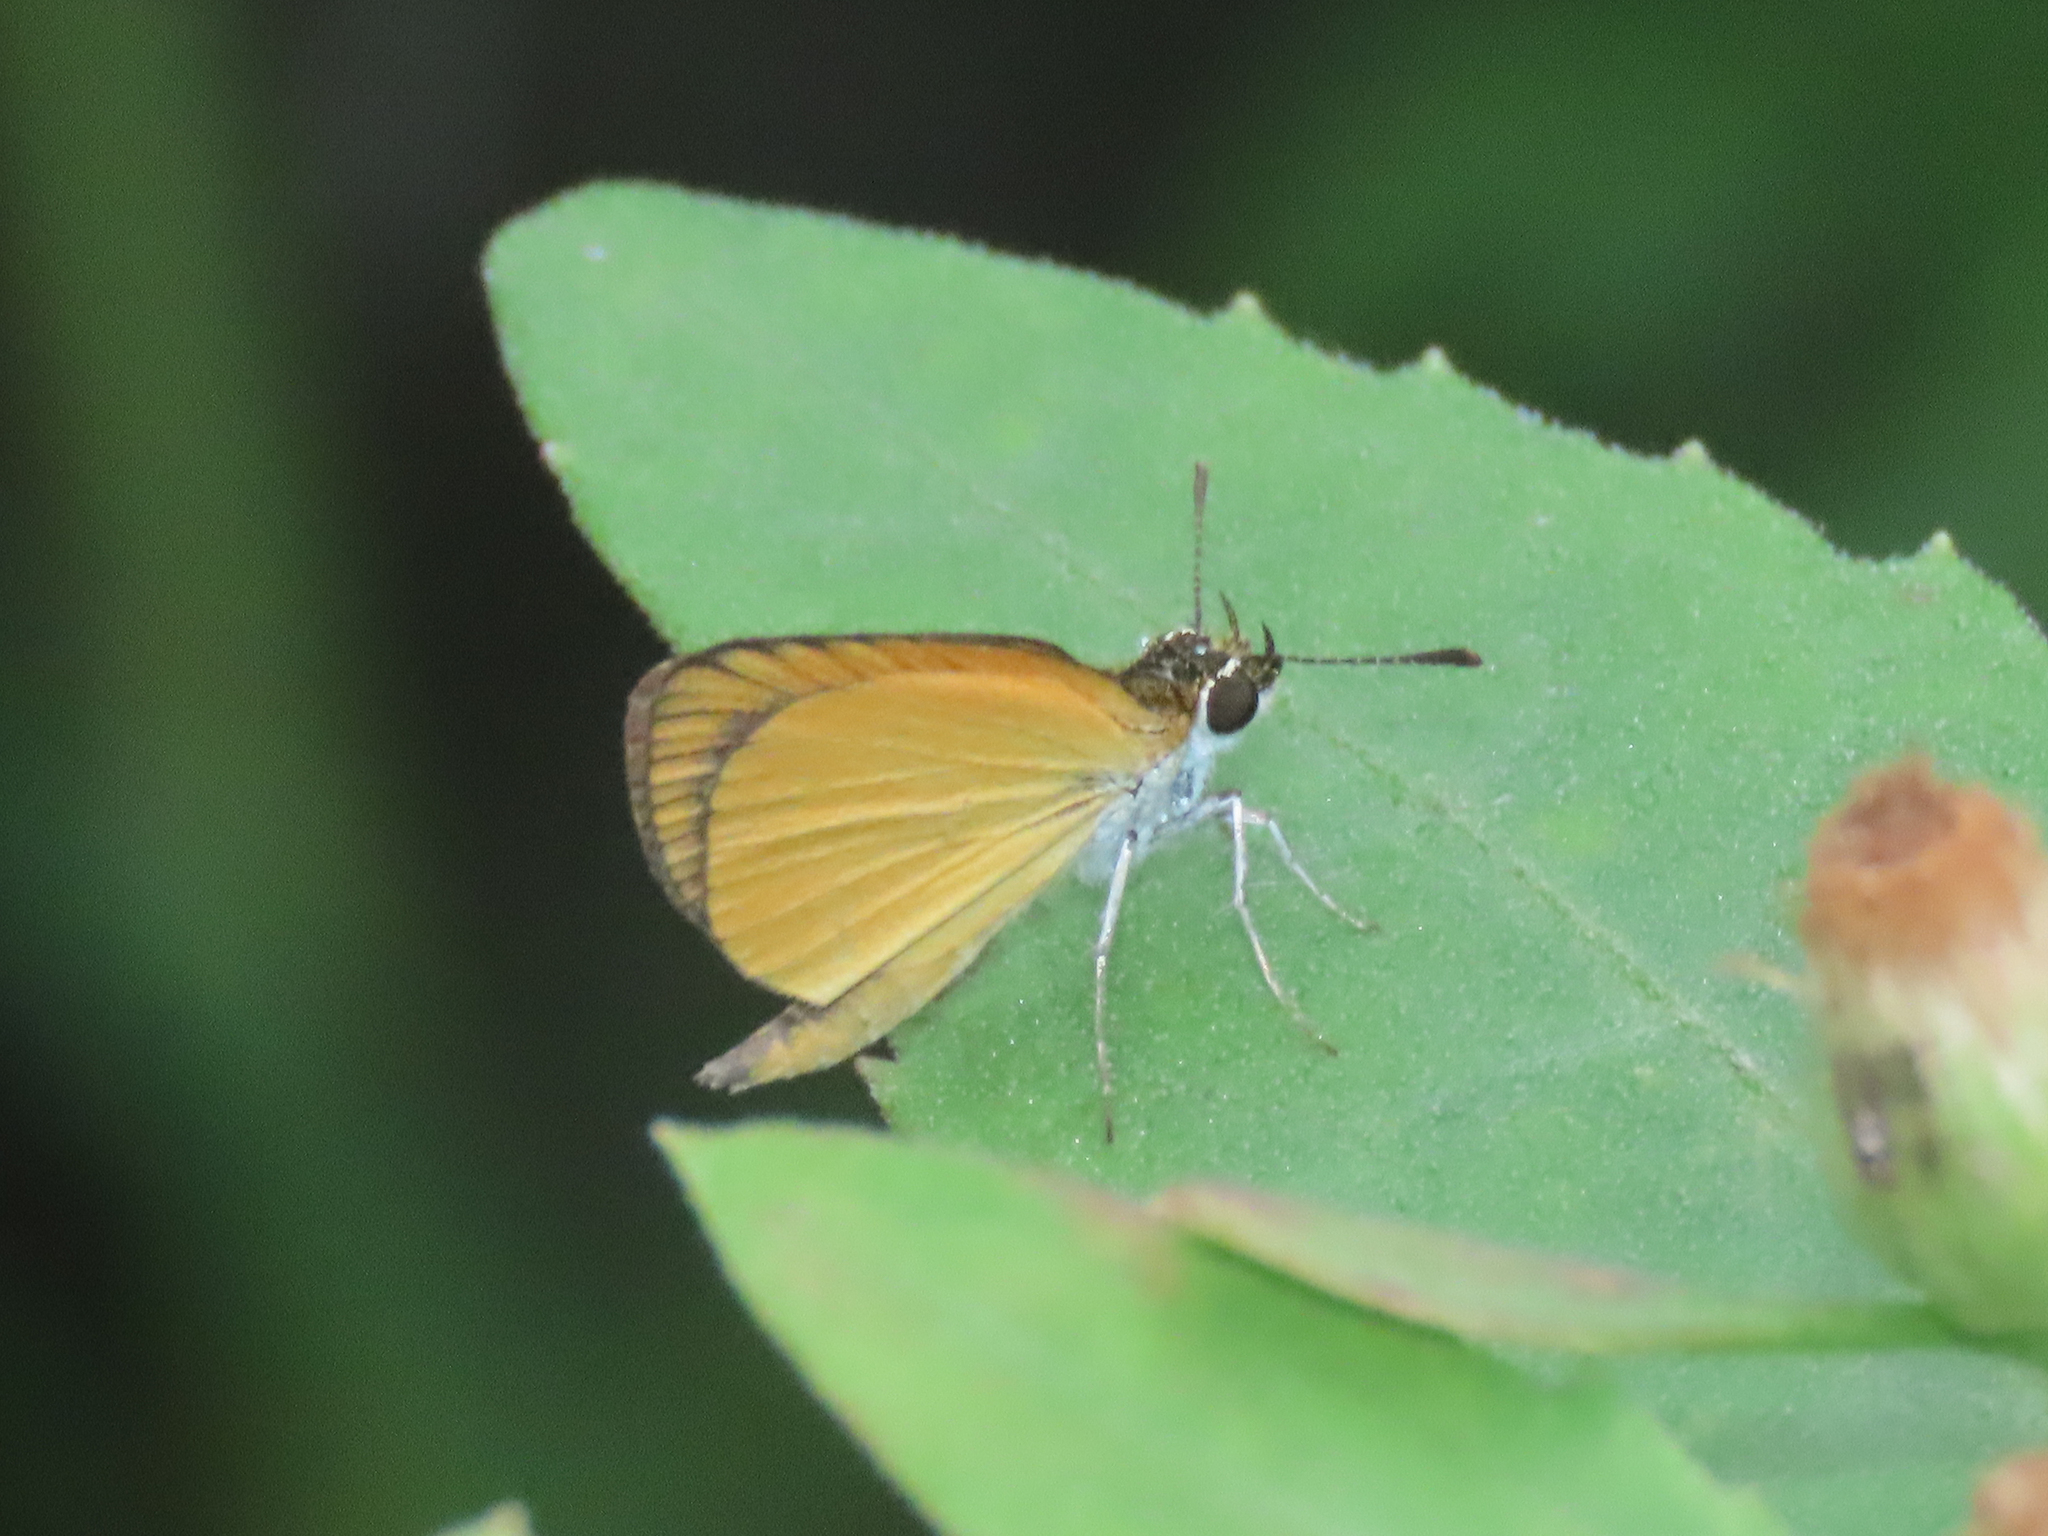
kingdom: Animalia
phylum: Arthropoda
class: Insecta
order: Lepidoptera
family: Hesperiidae
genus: Ancyloxypha
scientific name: Ancyloxypha numitor
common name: Least skipper
